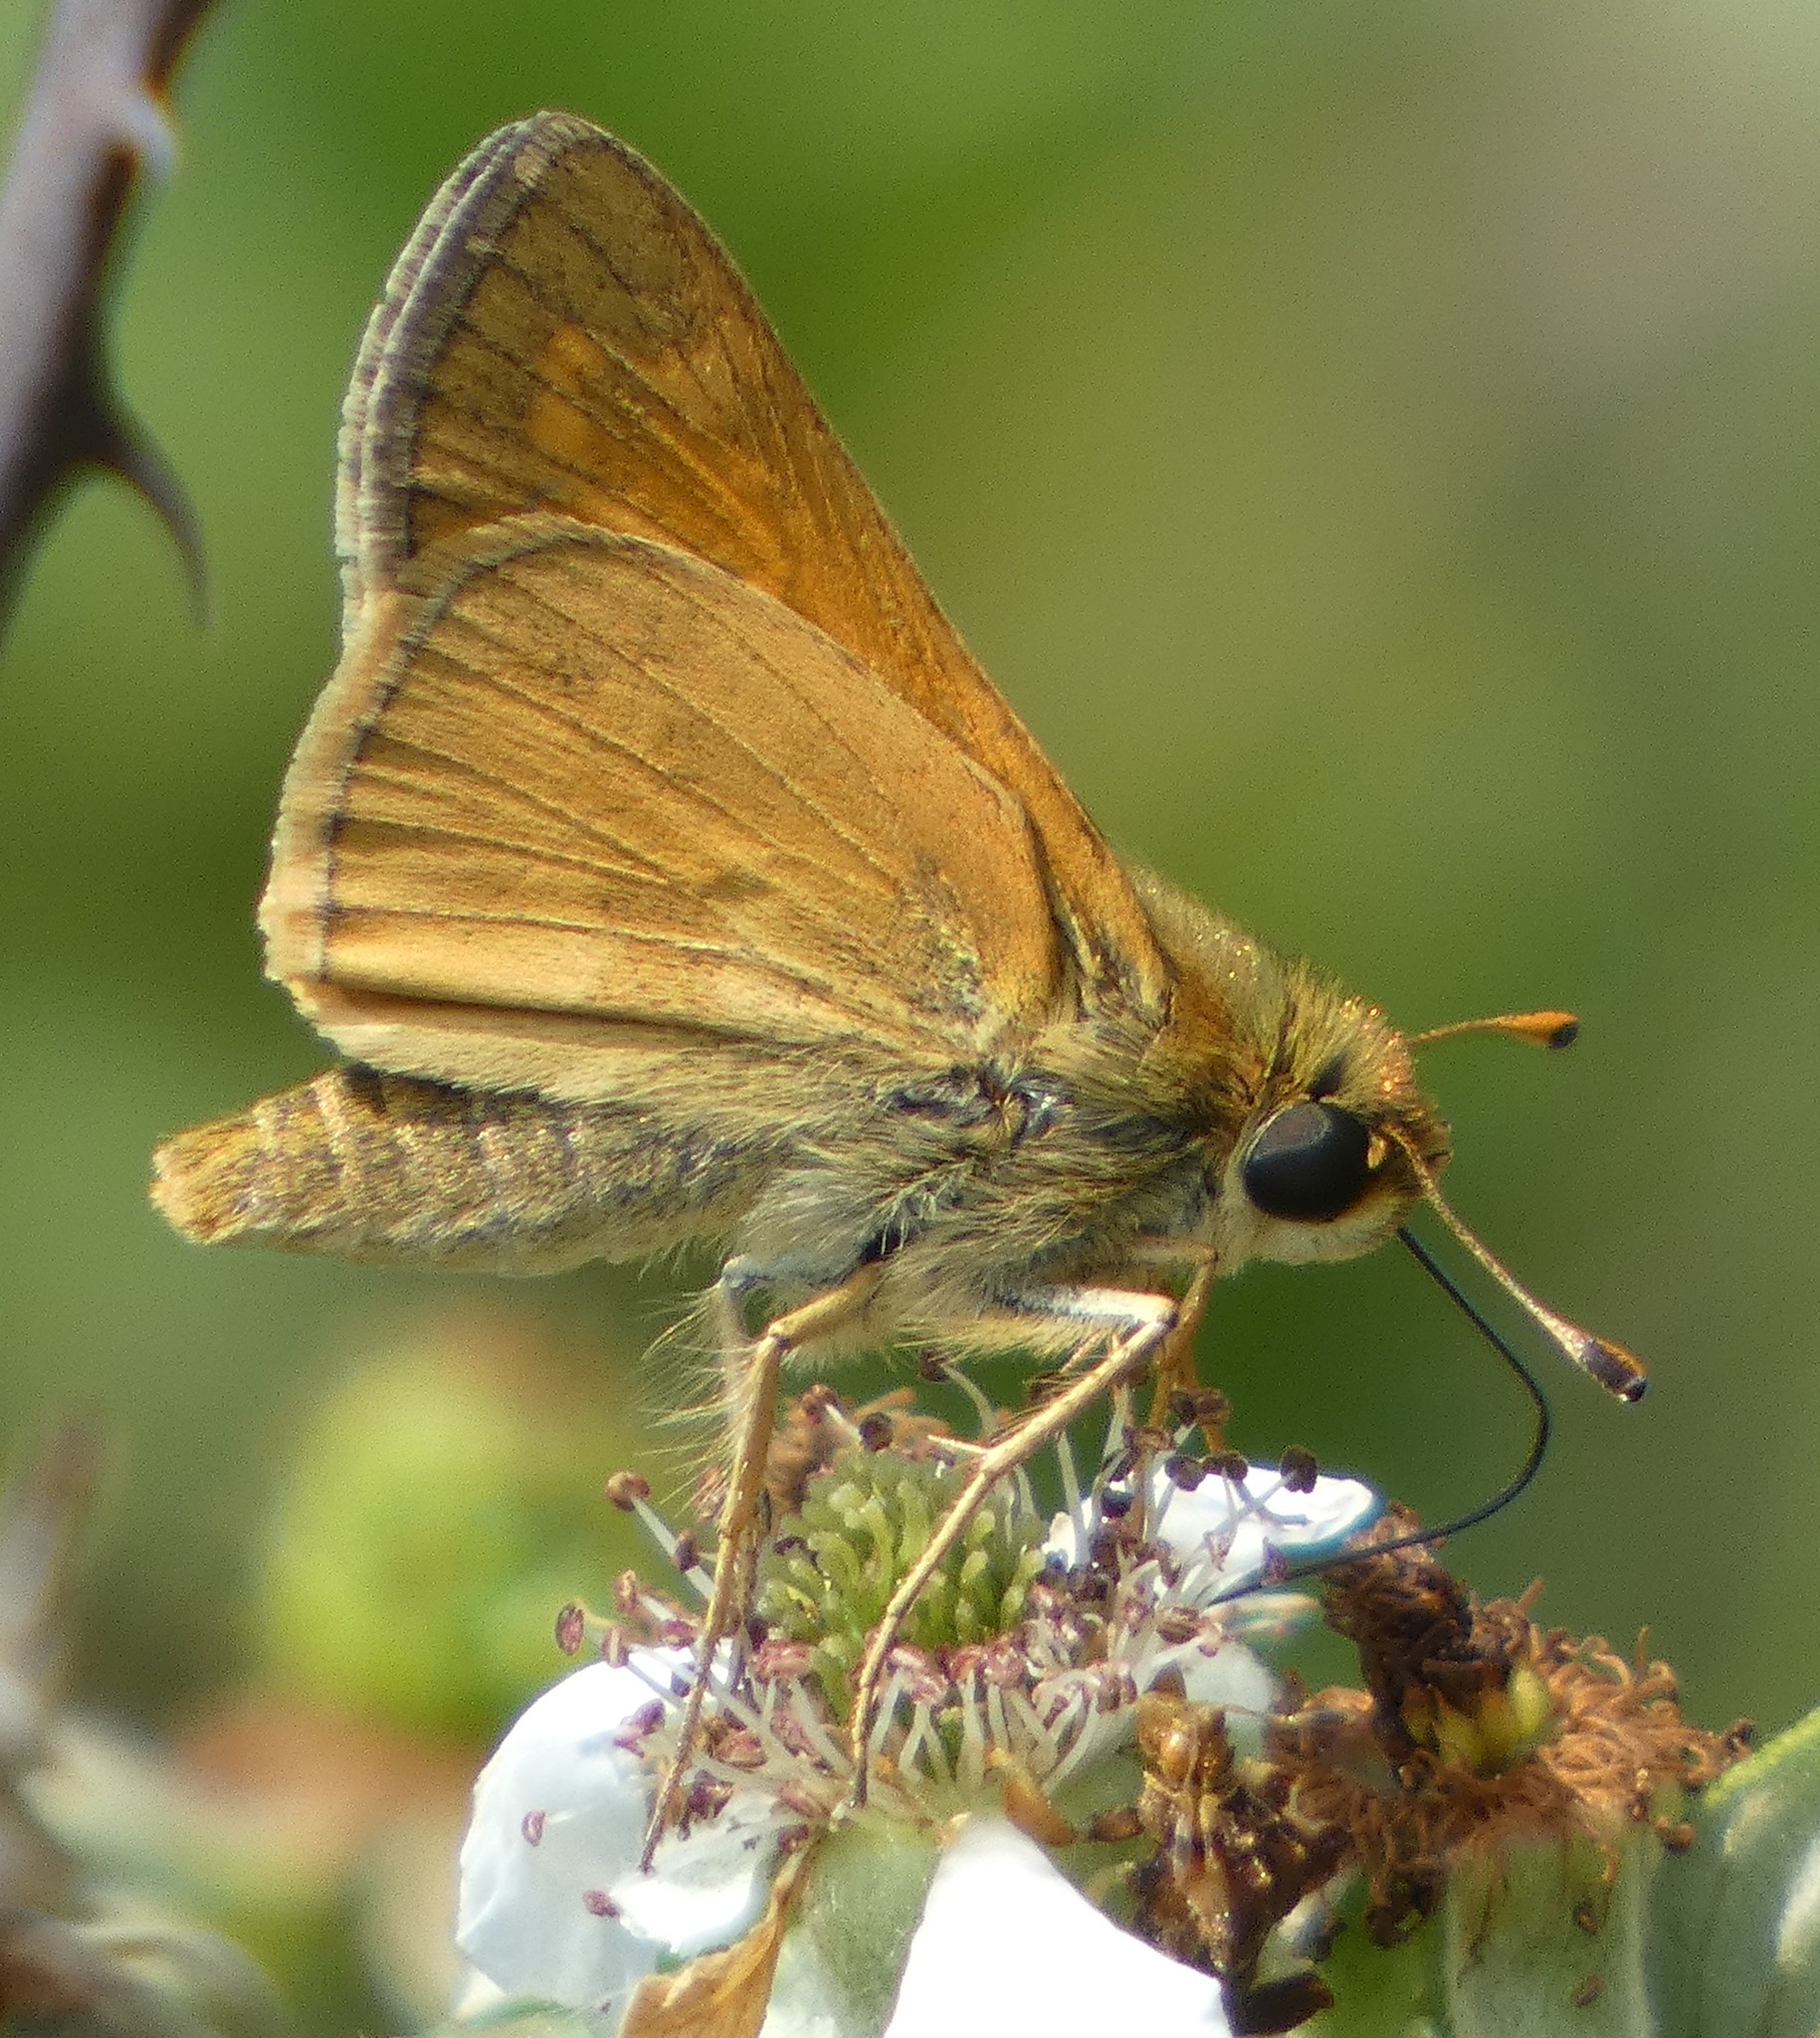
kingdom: Animalia
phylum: Arthropoda
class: Insecta
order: Lepidoptera
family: Hesperiidae
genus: Atalopedes
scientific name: Atalopedes
